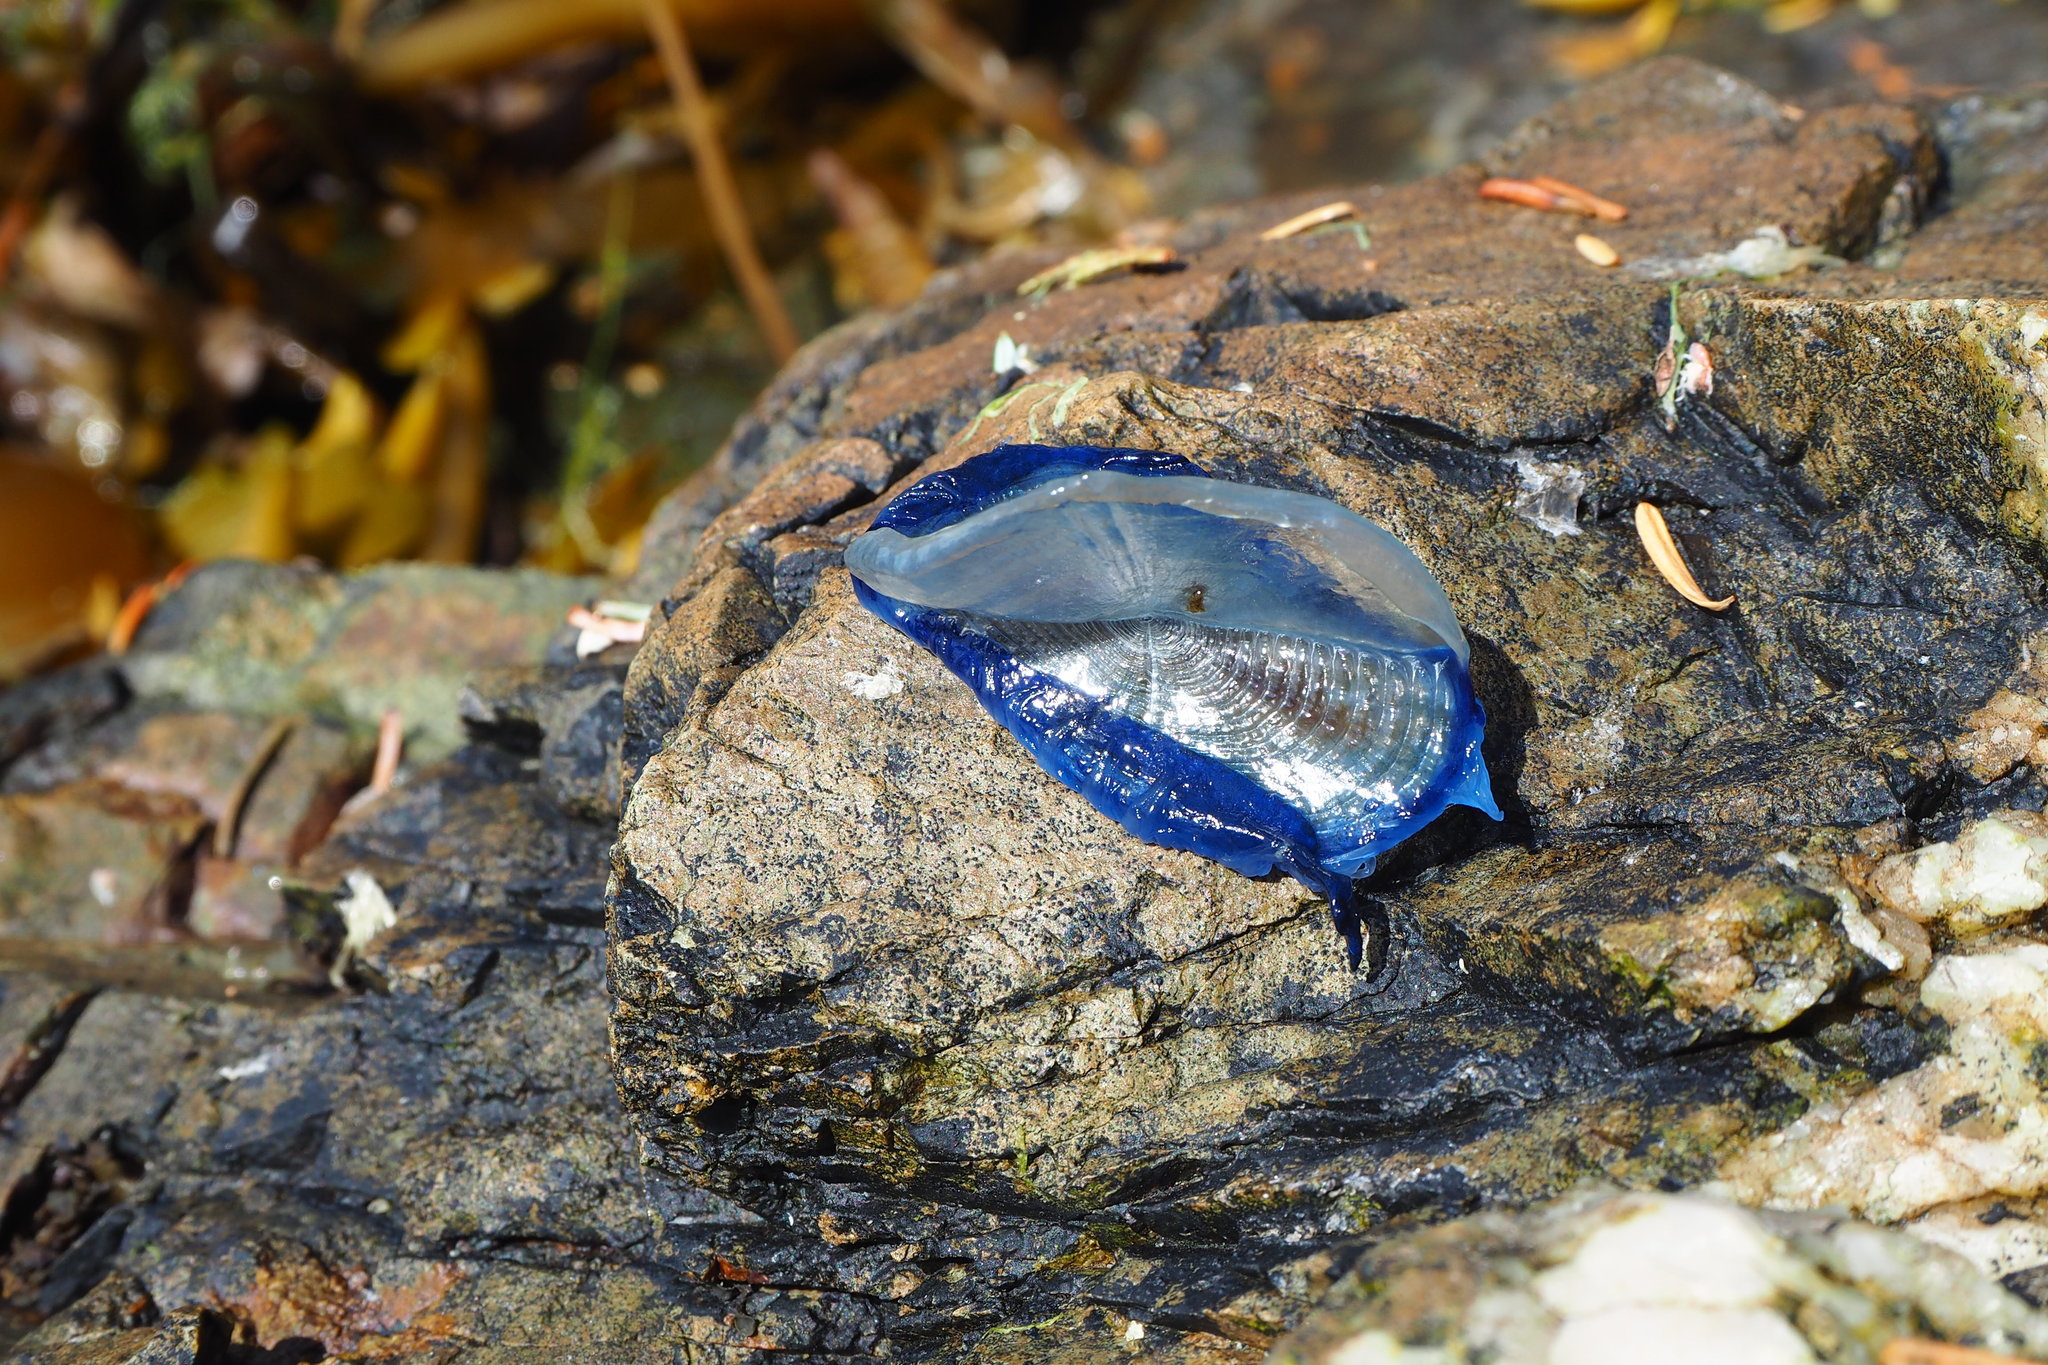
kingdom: Animalia
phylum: Cnidaria
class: Hydrozoa
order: Anthoathecata
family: Porpitidae
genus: Velella
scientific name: Velella velella
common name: By-the-wind-sailor
